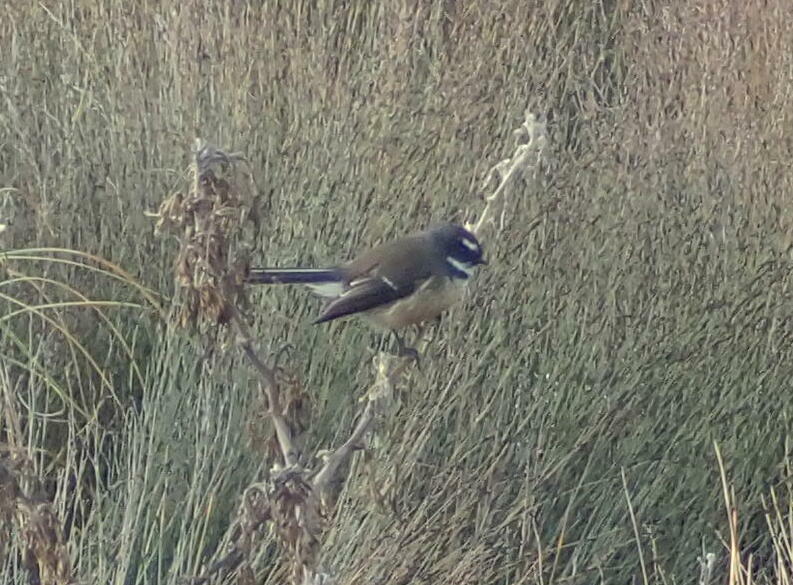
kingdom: Animalia
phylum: Chordata
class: Aves
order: Passeriformes
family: Rhipiduridae
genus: Rhipidura
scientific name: Rhipidura fuliginosa
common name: New zealand fantail
